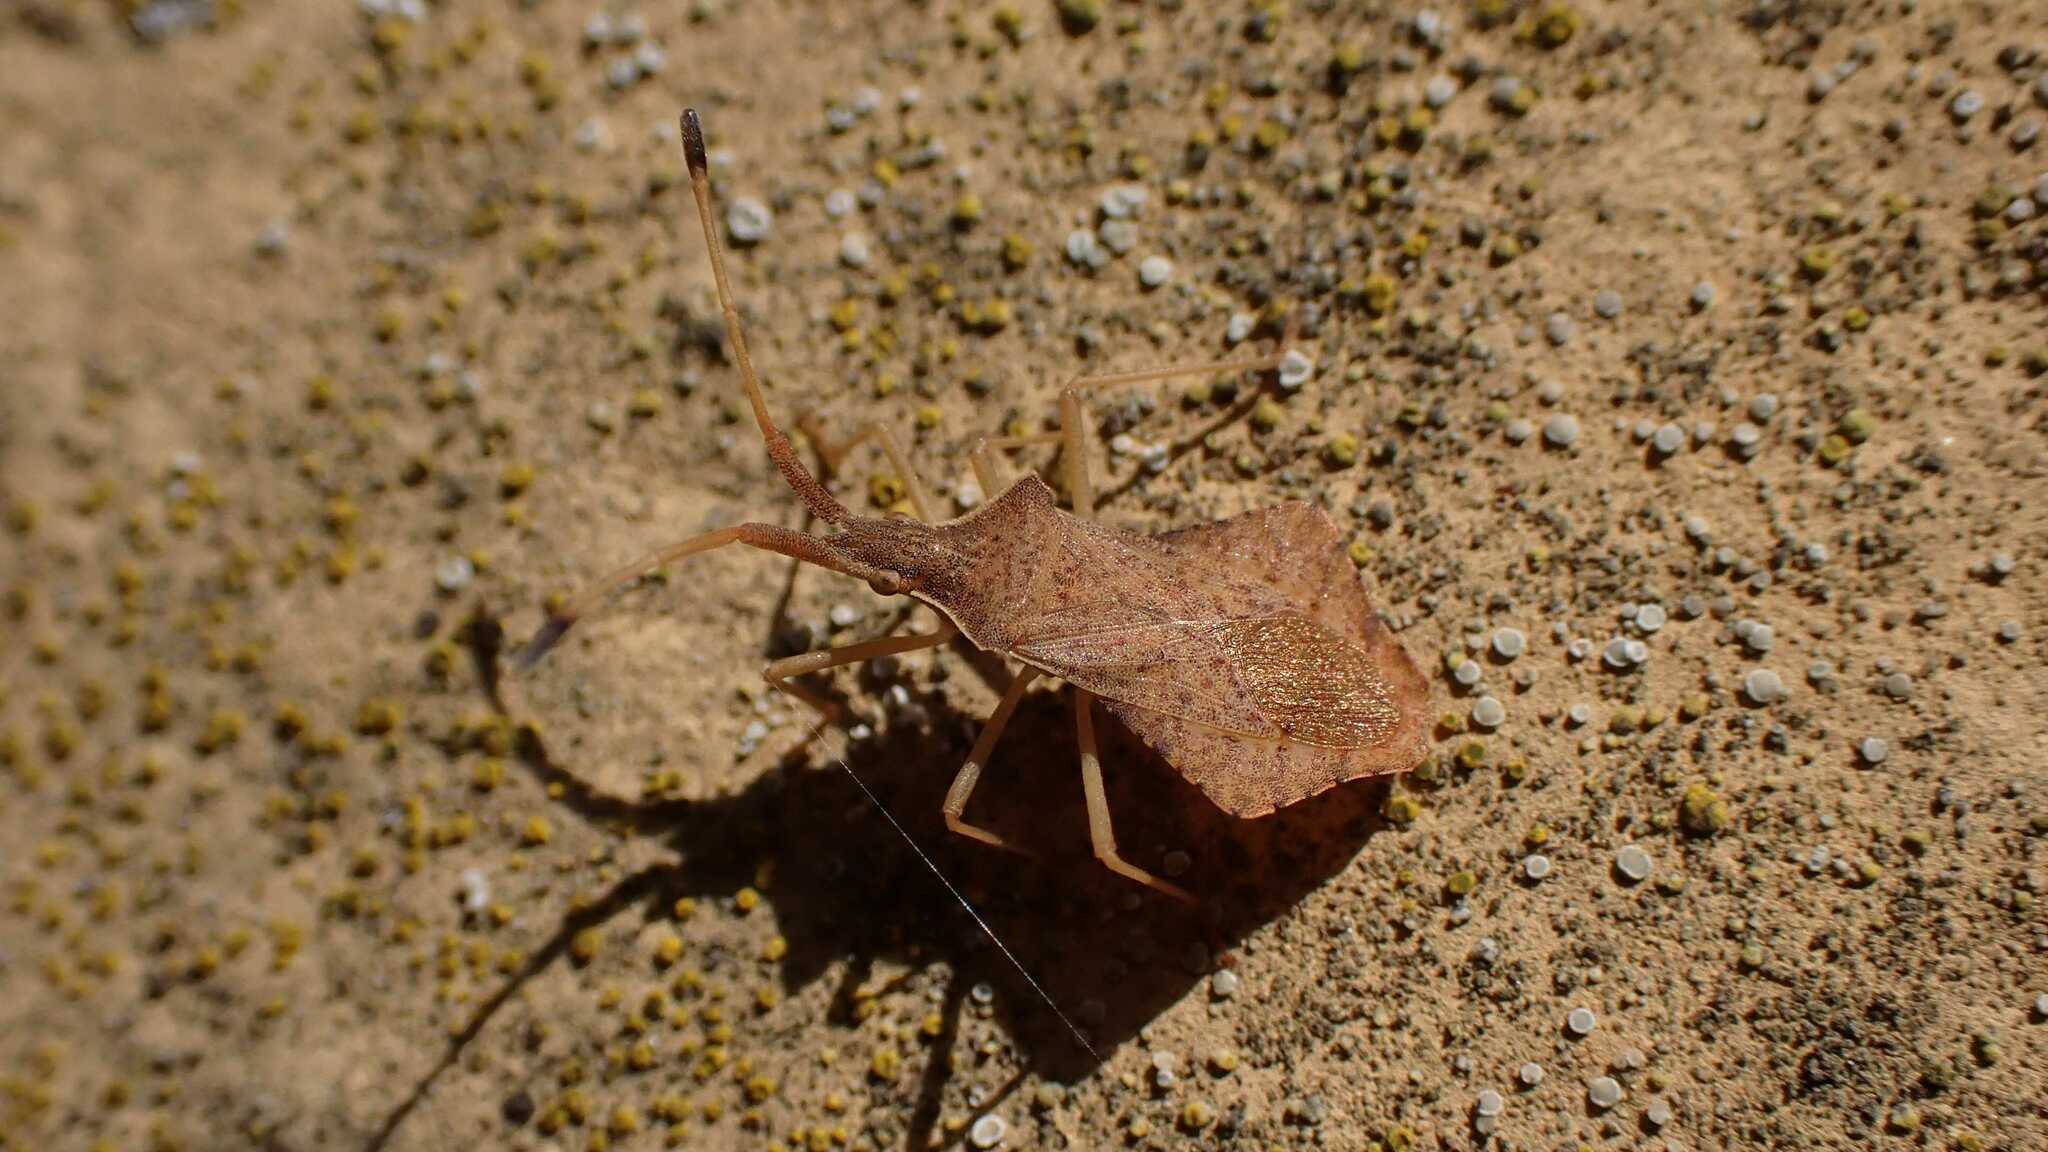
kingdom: Animalia
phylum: Arthropoda
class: Insecta
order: Hemiptera
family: Coreidae
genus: Syromastus
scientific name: Syromastus rhombeus
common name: Rhombic leatherbug
